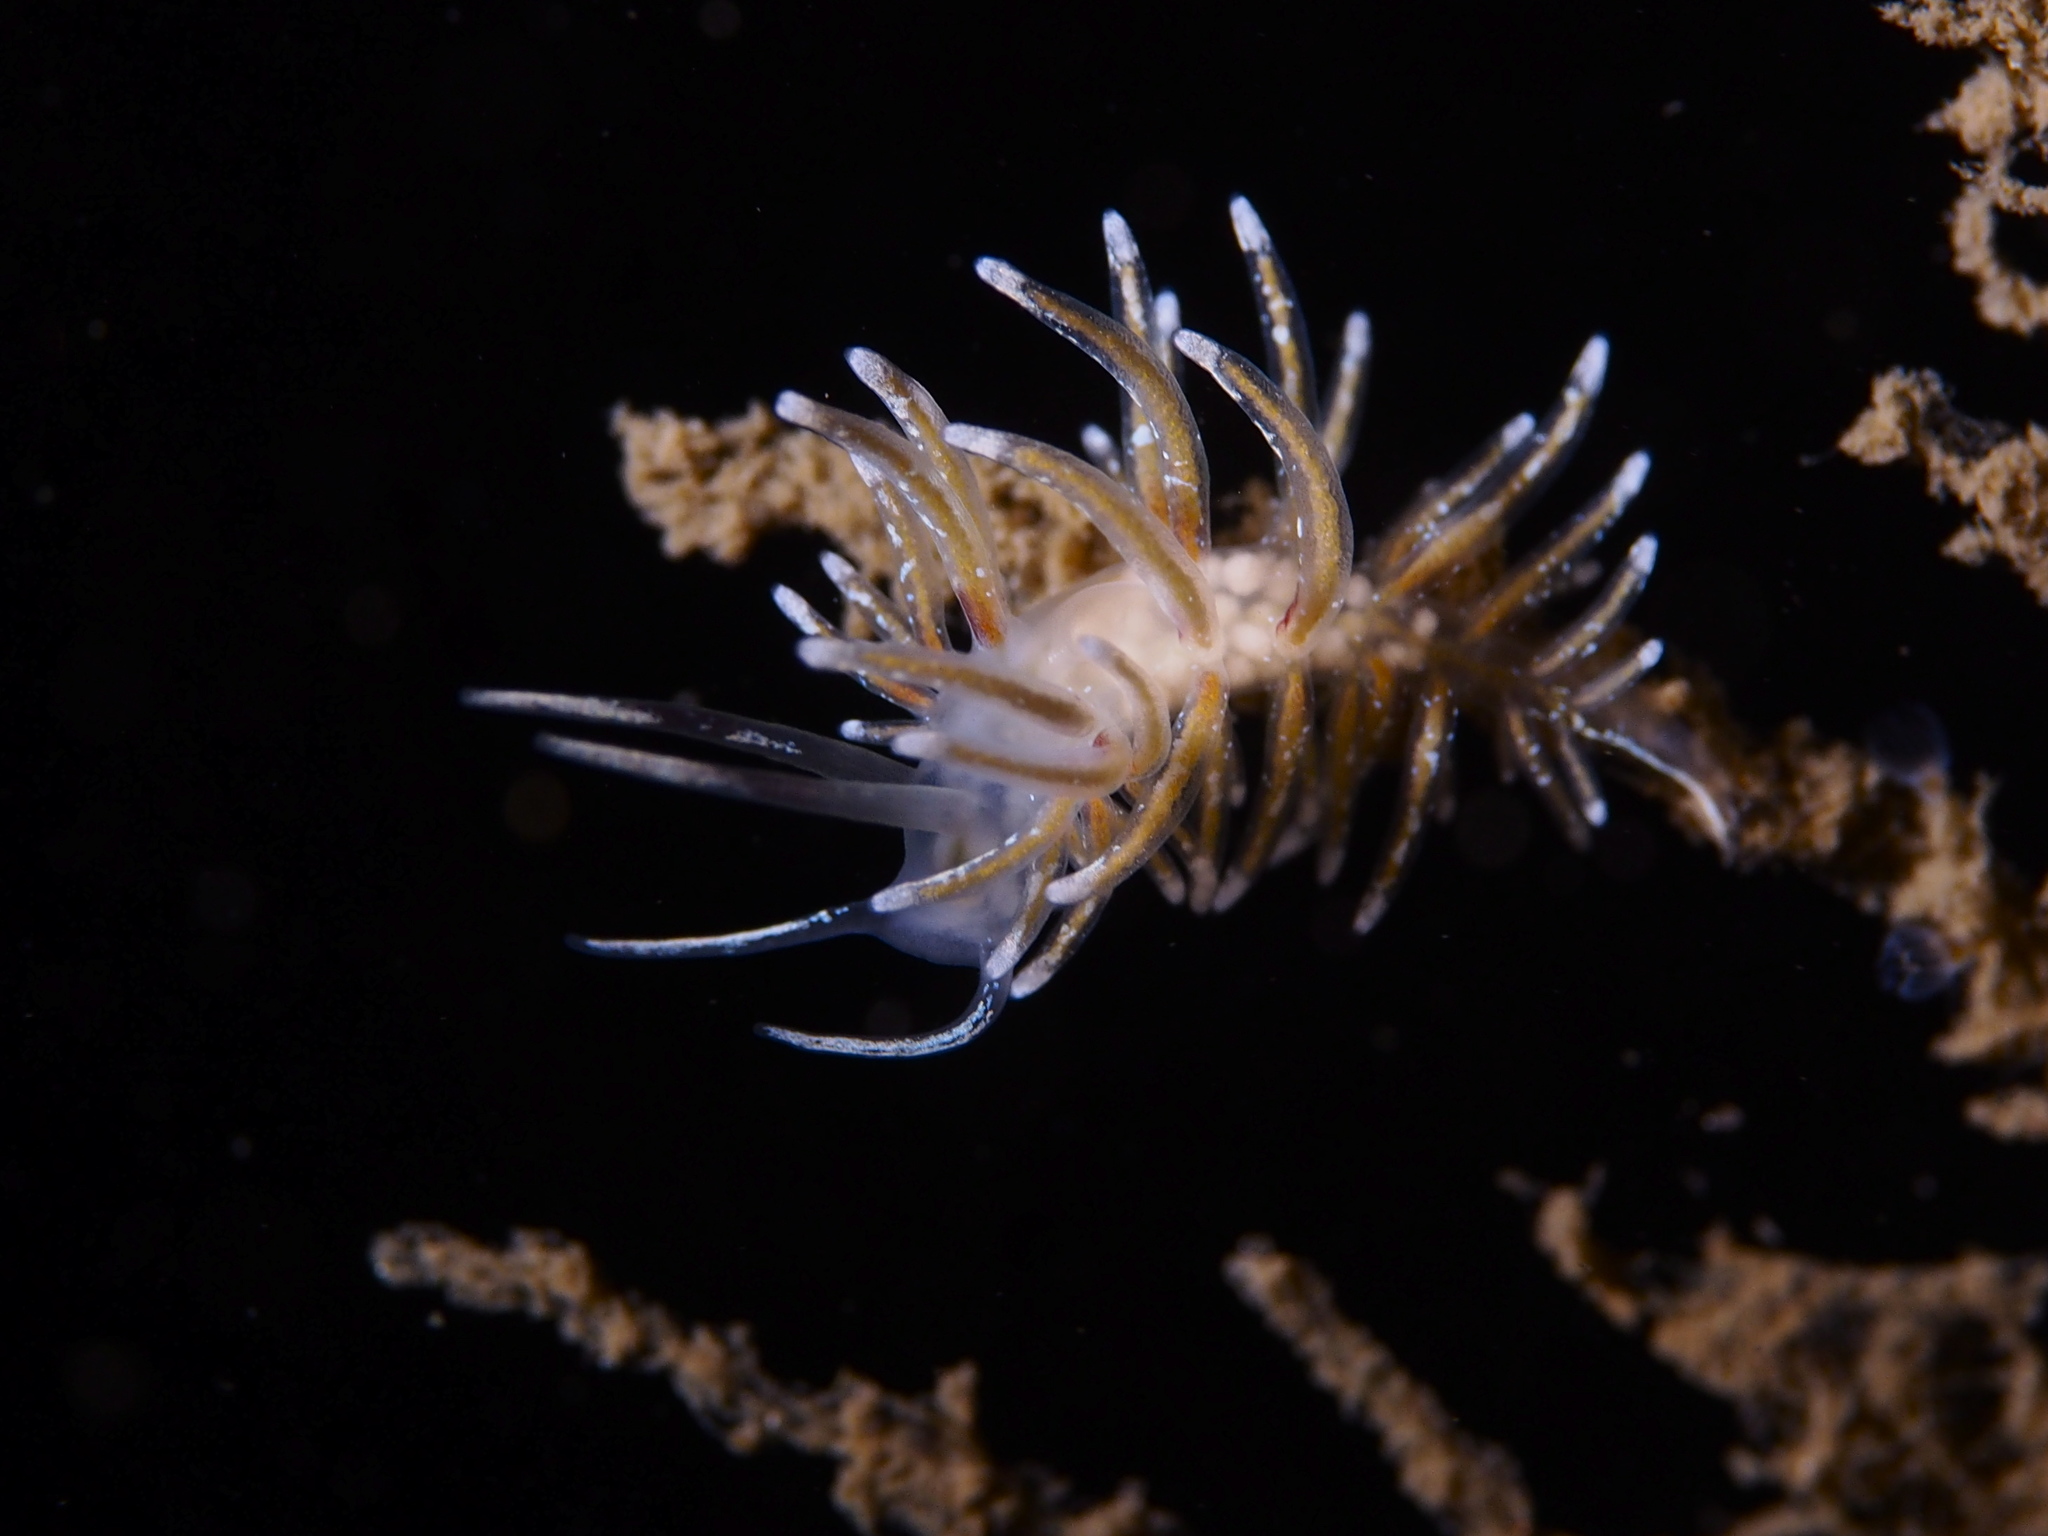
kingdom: Animalia
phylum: Mollusca
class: Gastropoda
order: Nudibranchia
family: Trinchesiidae
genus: Rubramoena
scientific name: Rubramoena rubescens
